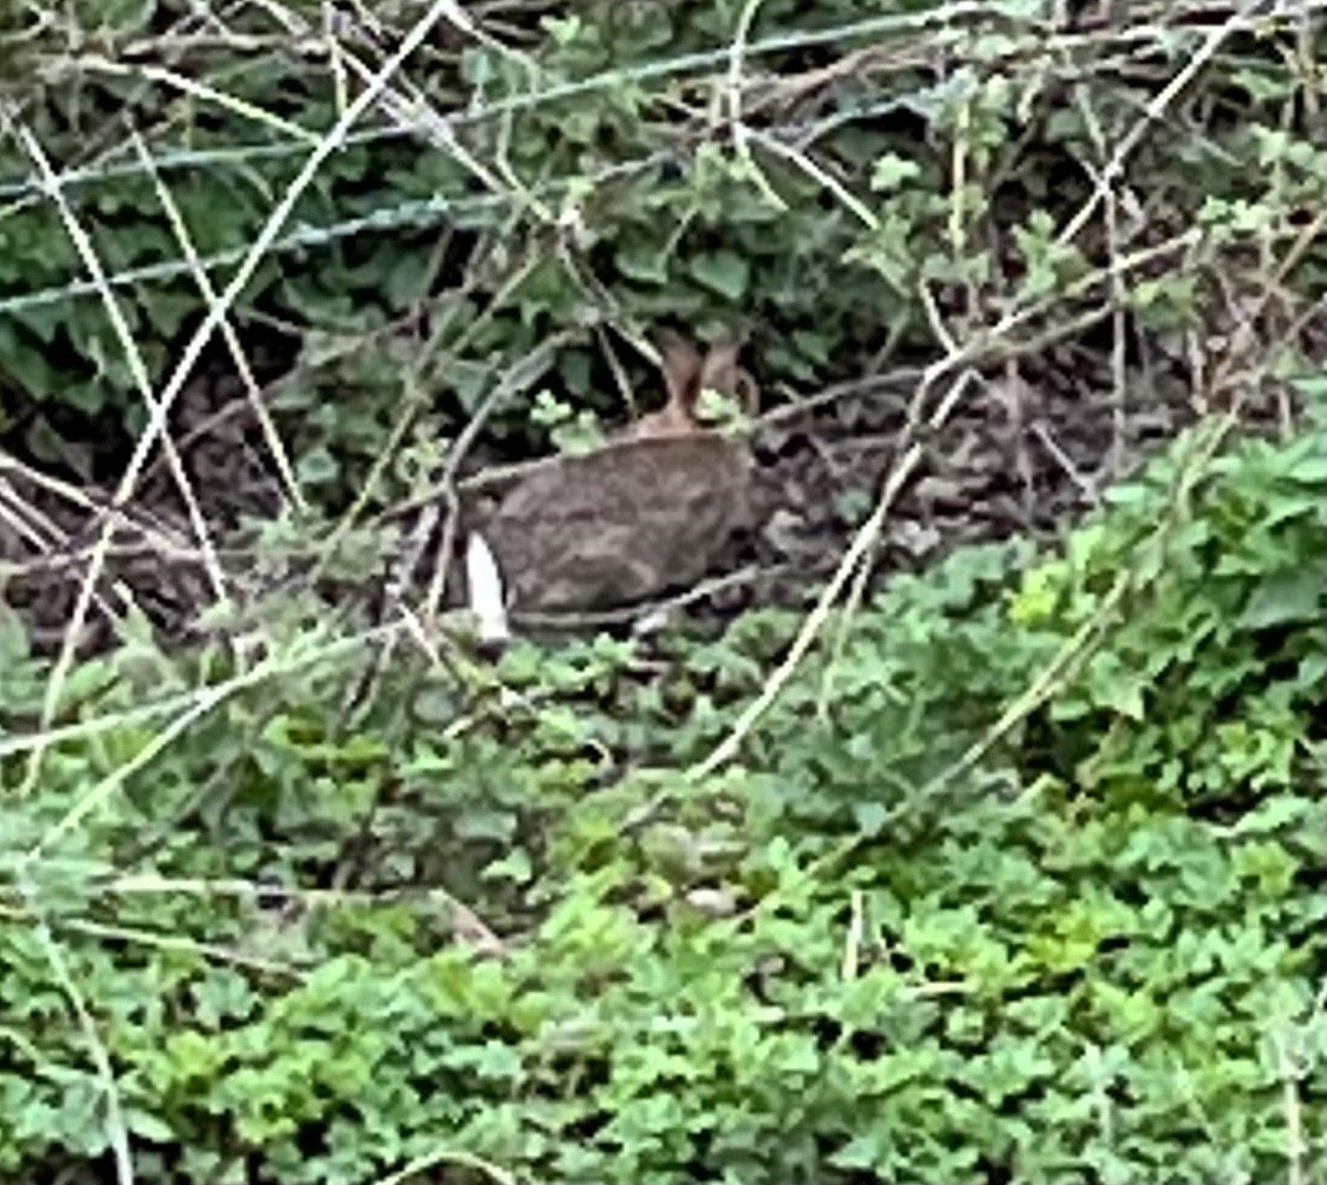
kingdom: Animalia
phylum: Chordata
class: Mammalia
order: Lagomorpha
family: Leporidae
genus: Oryctolagus
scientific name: Oryctolagus cuniculus
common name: European rabbit
